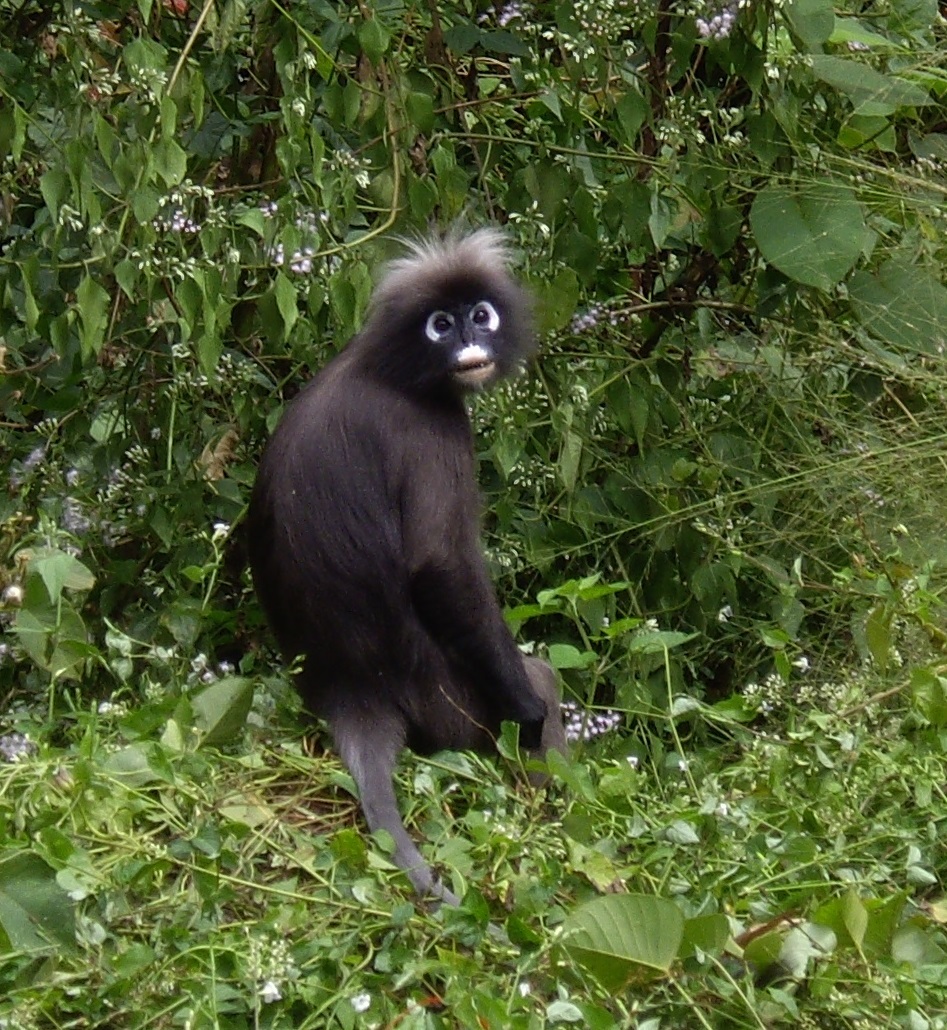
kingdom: Animalia
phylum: Chordata
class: Mammalia
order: Primates
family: Cercopithecidae
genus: Trachypithecus
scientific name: Trachypithecus obscurus
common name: Dusky leaf-monkey
